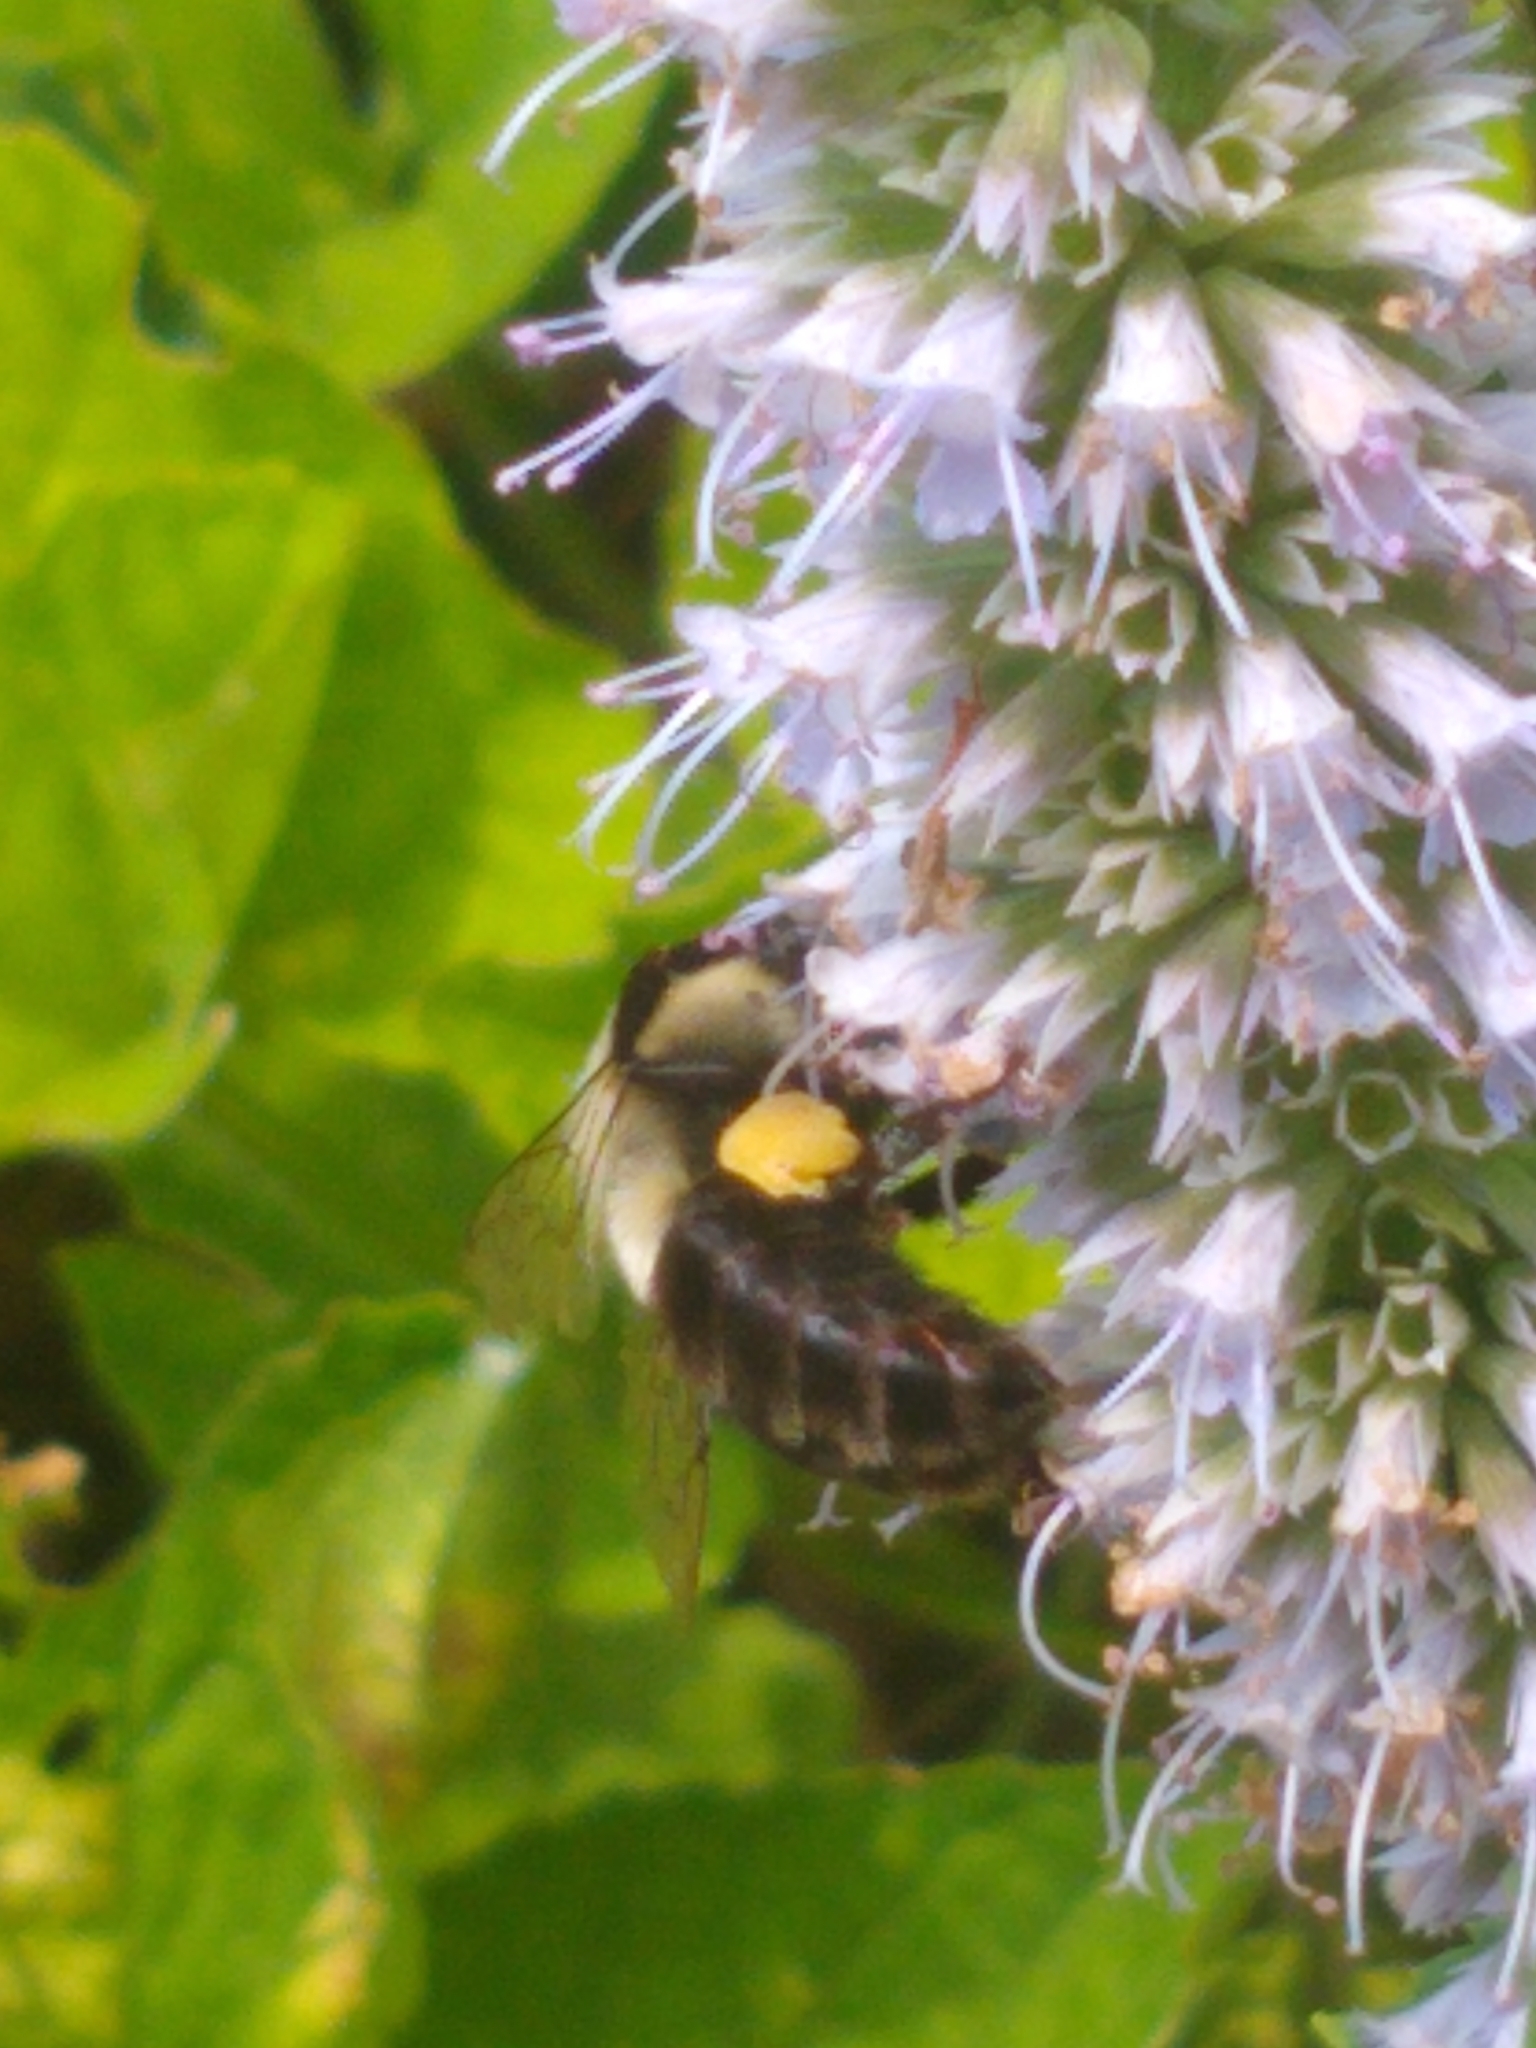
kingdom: Animalia
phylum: Arthropoda
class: Insecta
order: Hymenoptera
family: Apidae
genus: Bombus
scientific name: Bombus impatiens
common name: Common eastern bumble bee
